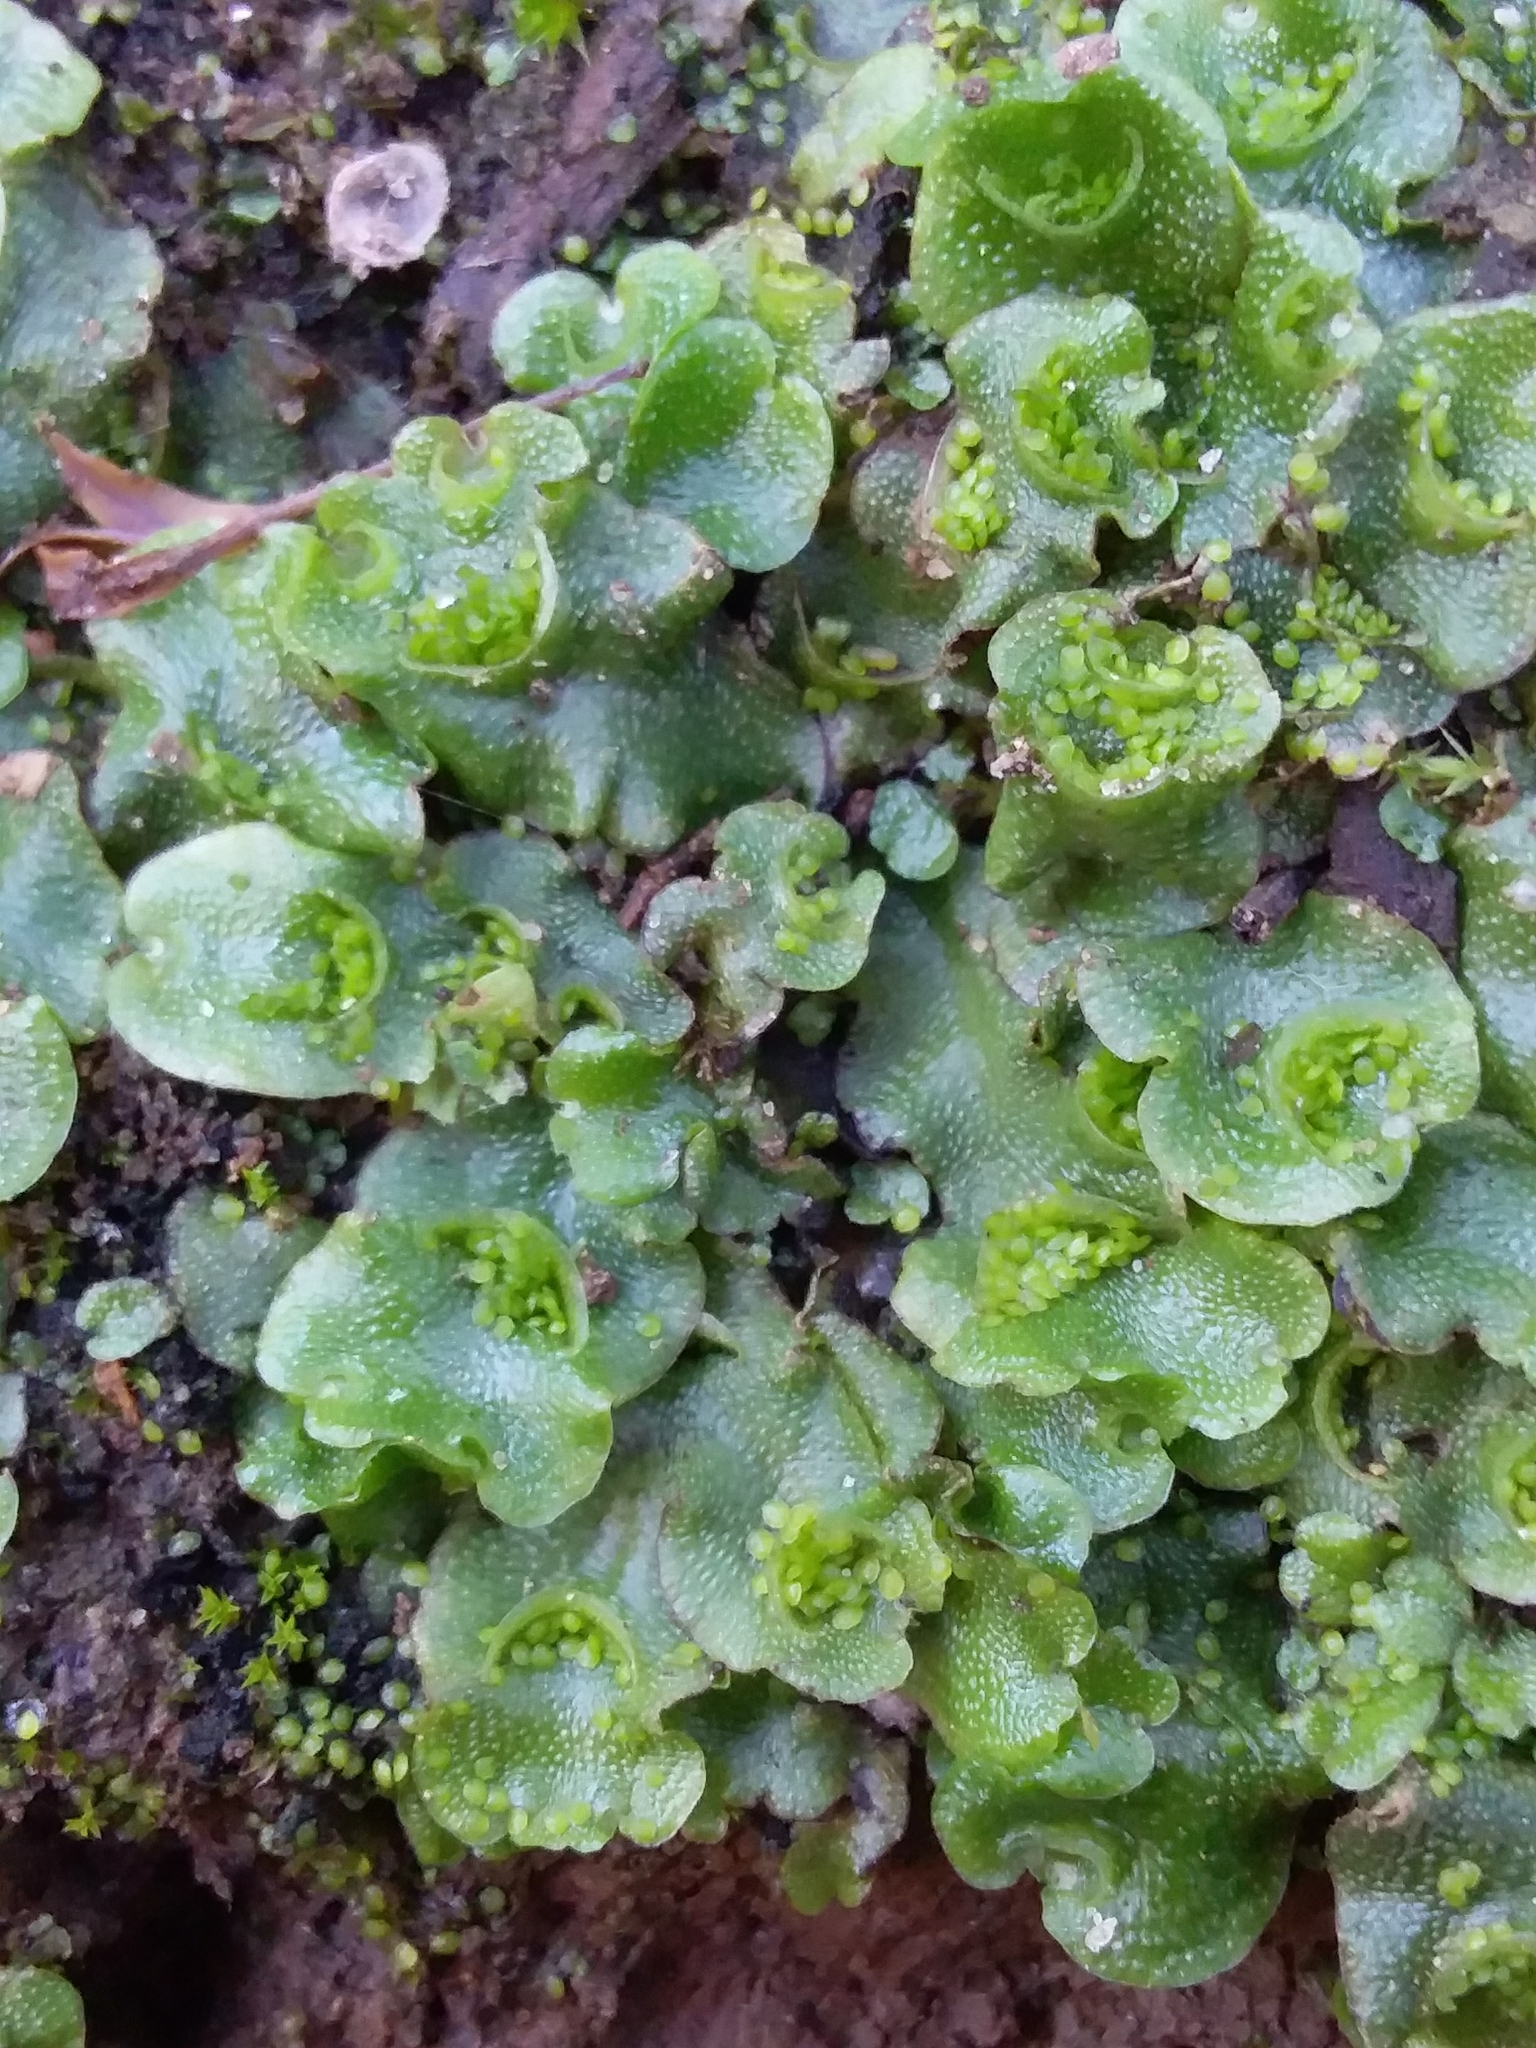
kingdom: Plantae
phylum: Marchantiophyta
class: Marchantiopsida
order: Lunulariales
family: Lunulariaceae
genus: Lunularia
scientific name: Lunularia cruciata
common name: Crescent-cup liverwort
